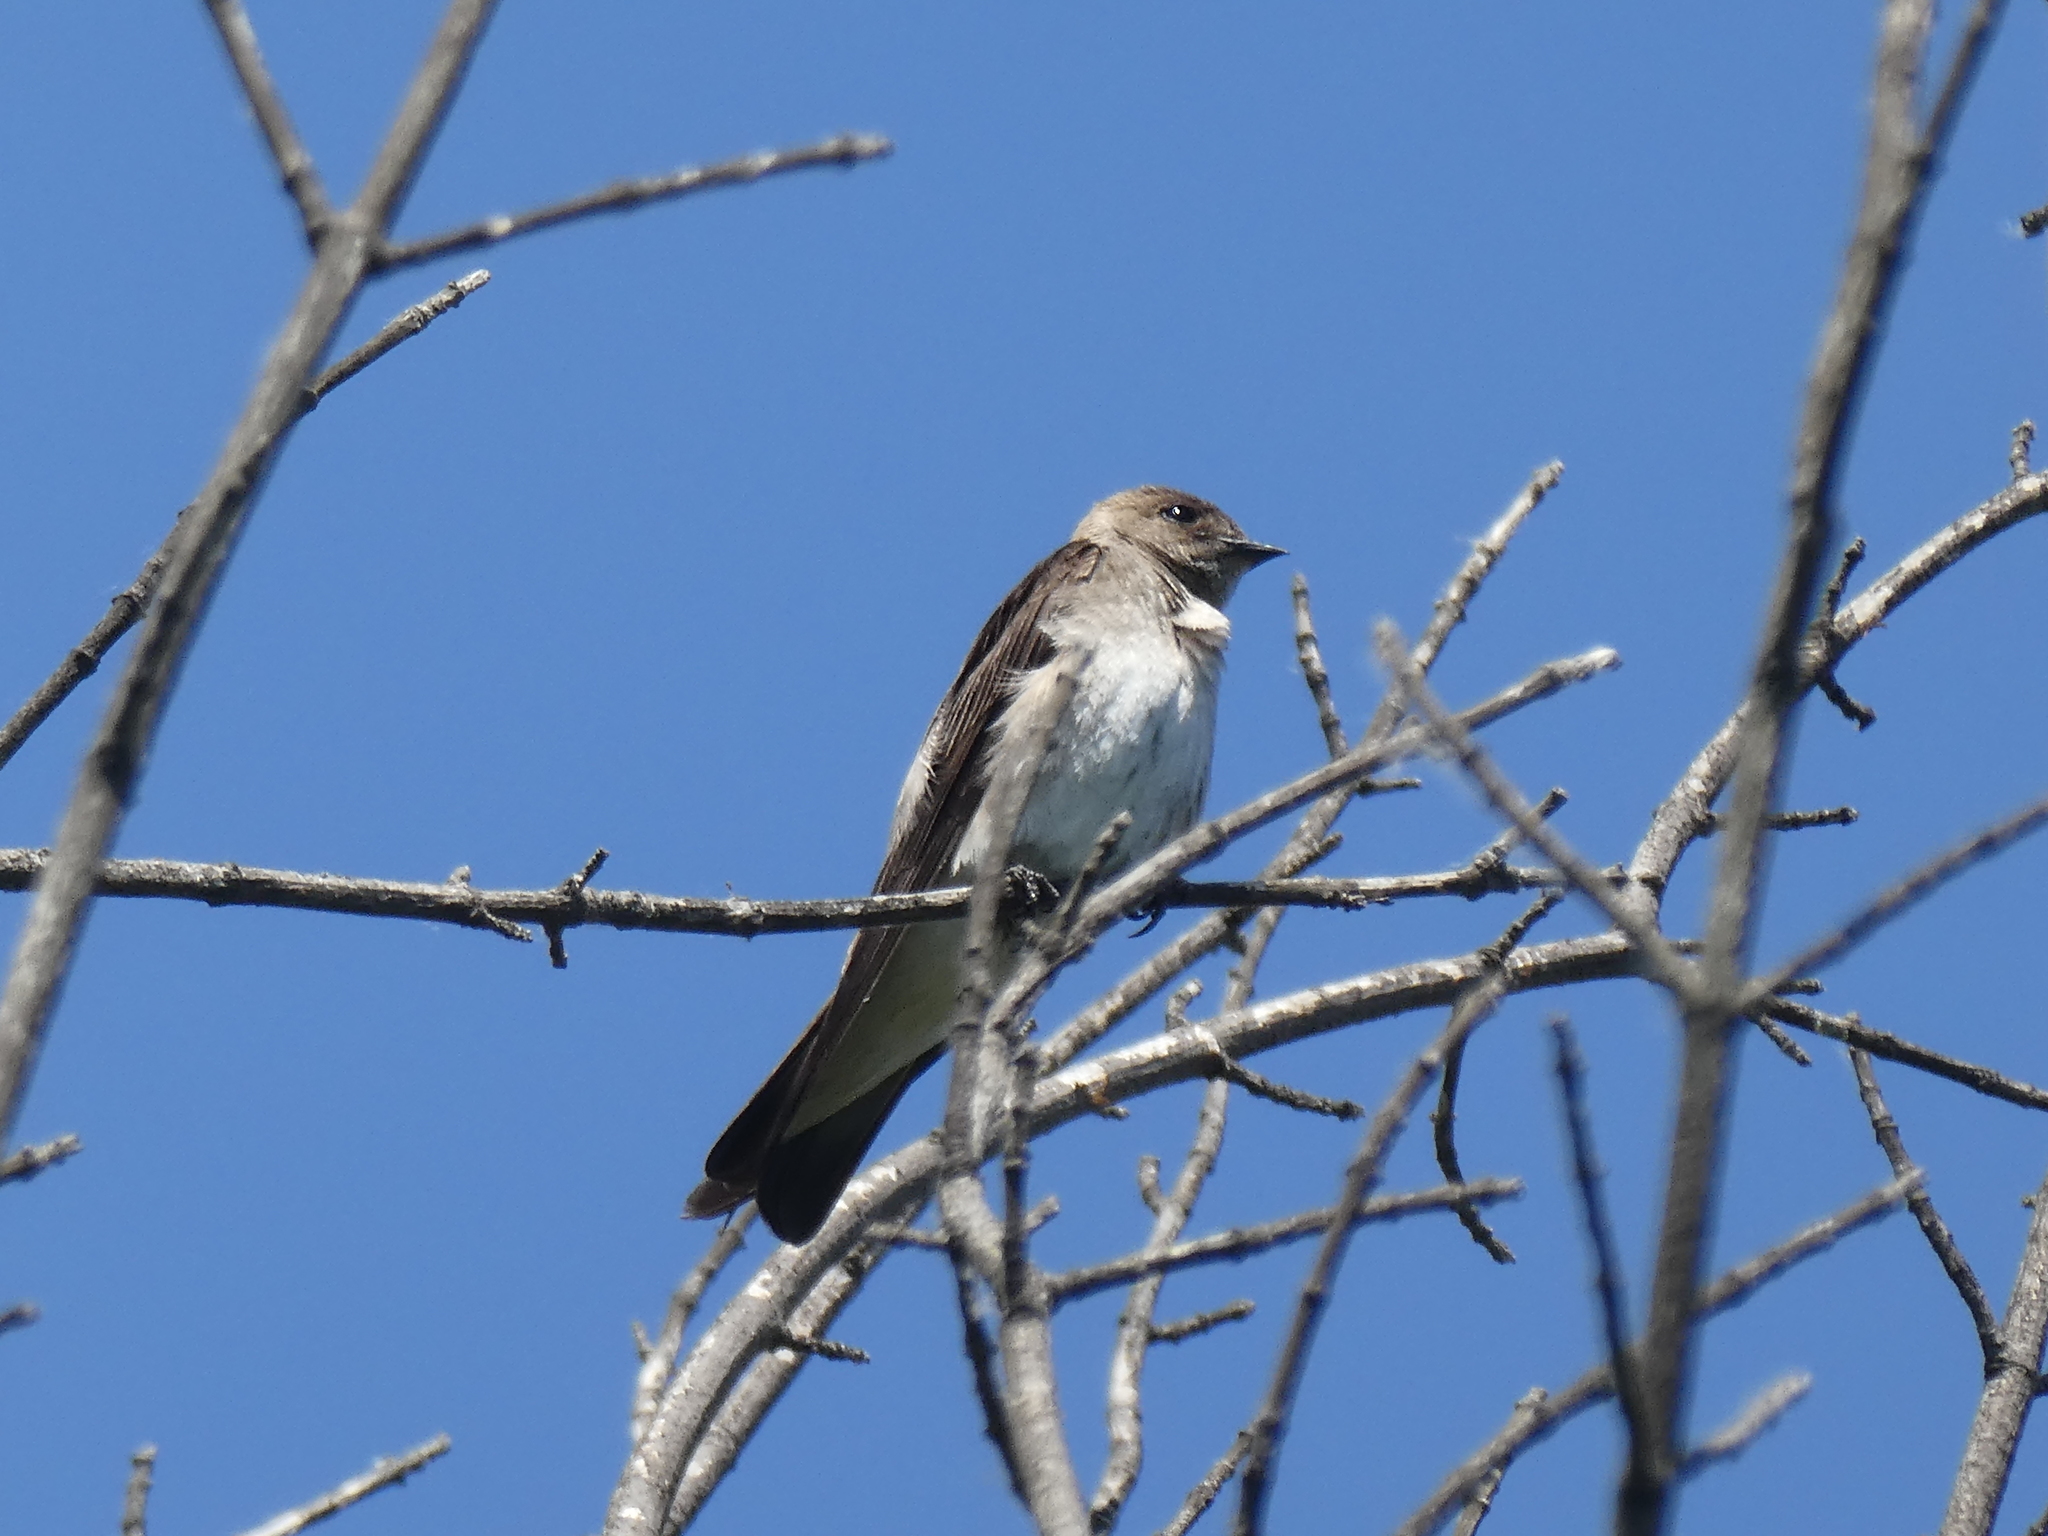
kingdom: Animalia
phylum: Chordata
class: Aves
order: Passeriformes
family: Hirundinidae
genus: Stelgidopteryx
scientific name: Stelgidopteryx serripennis
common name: Northern rough-winged swallow
